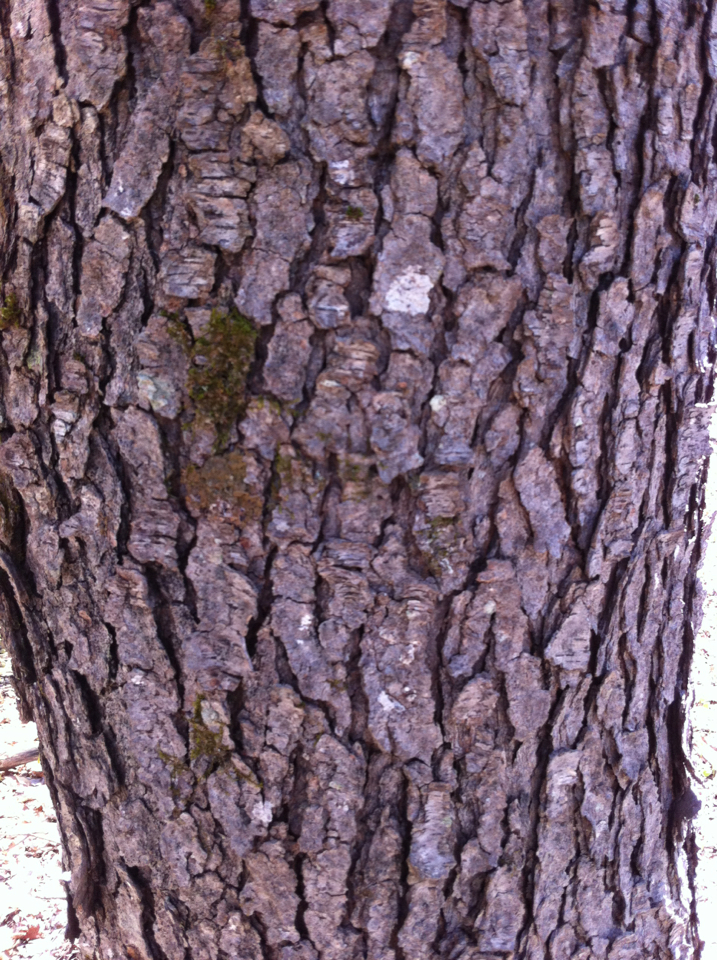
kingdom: Plantae
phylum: Tracheophyta
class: Magnoliopsida
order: Rosales
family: Rosaceae
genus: Prunus
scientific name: Prunus serotina
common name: Black cherry
